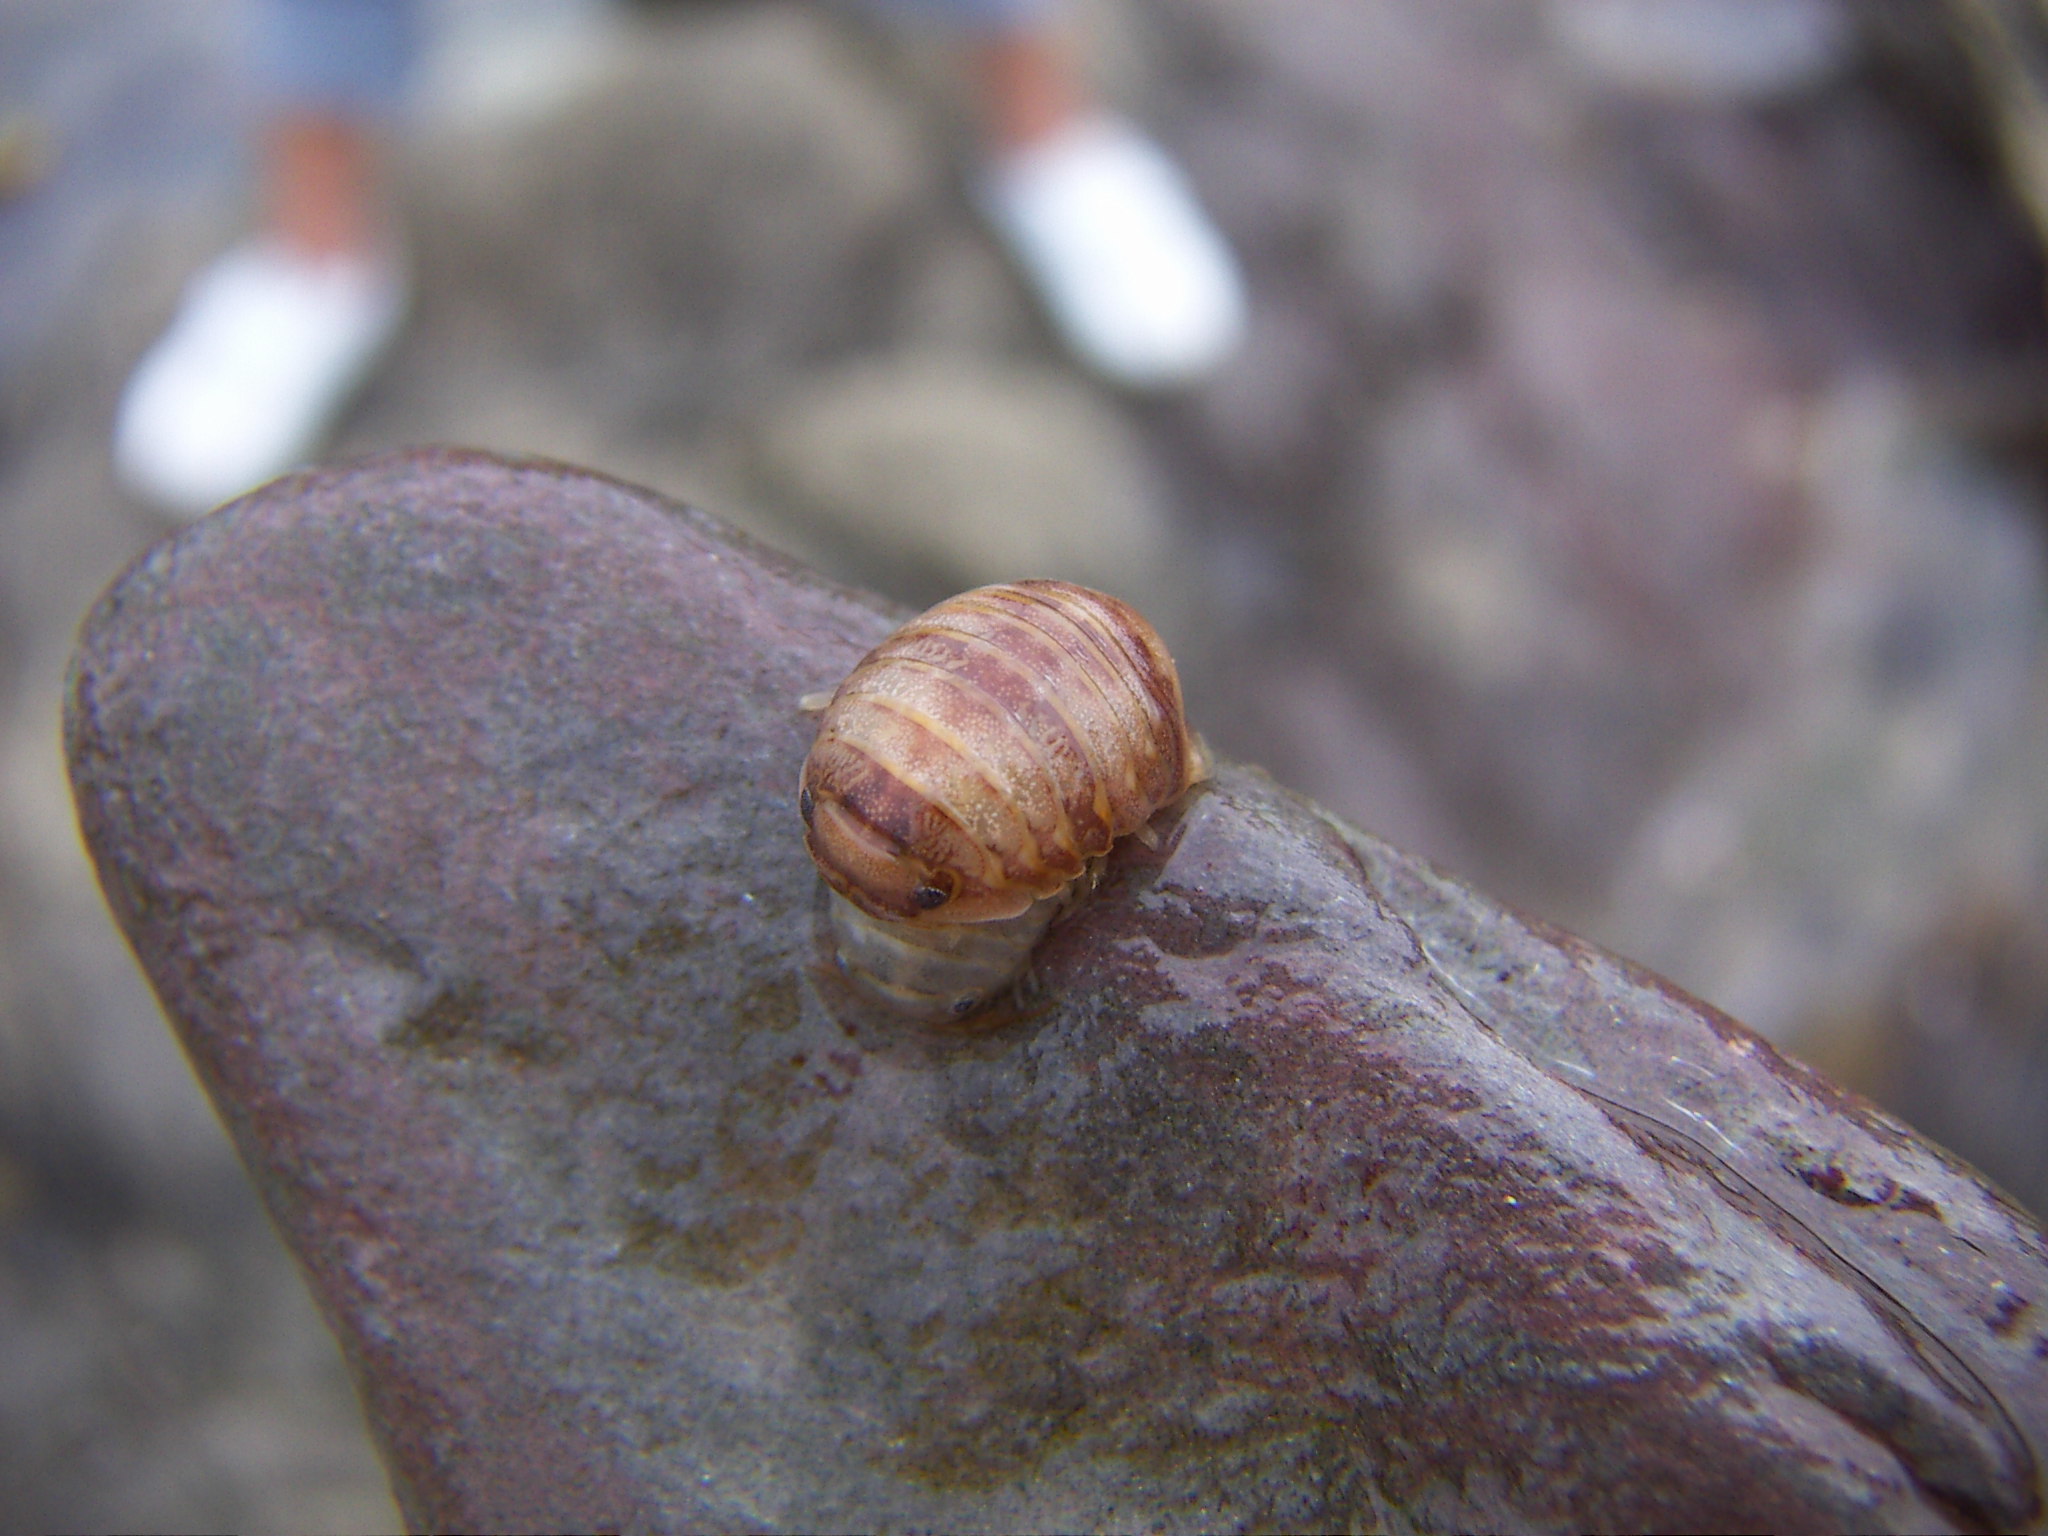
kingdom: Animalia
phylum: Arthropoda
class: Malacostraca
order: Isopoda
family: Sphaeromatidae
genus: Sphaeroma
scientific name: Sphaeroma serratum
